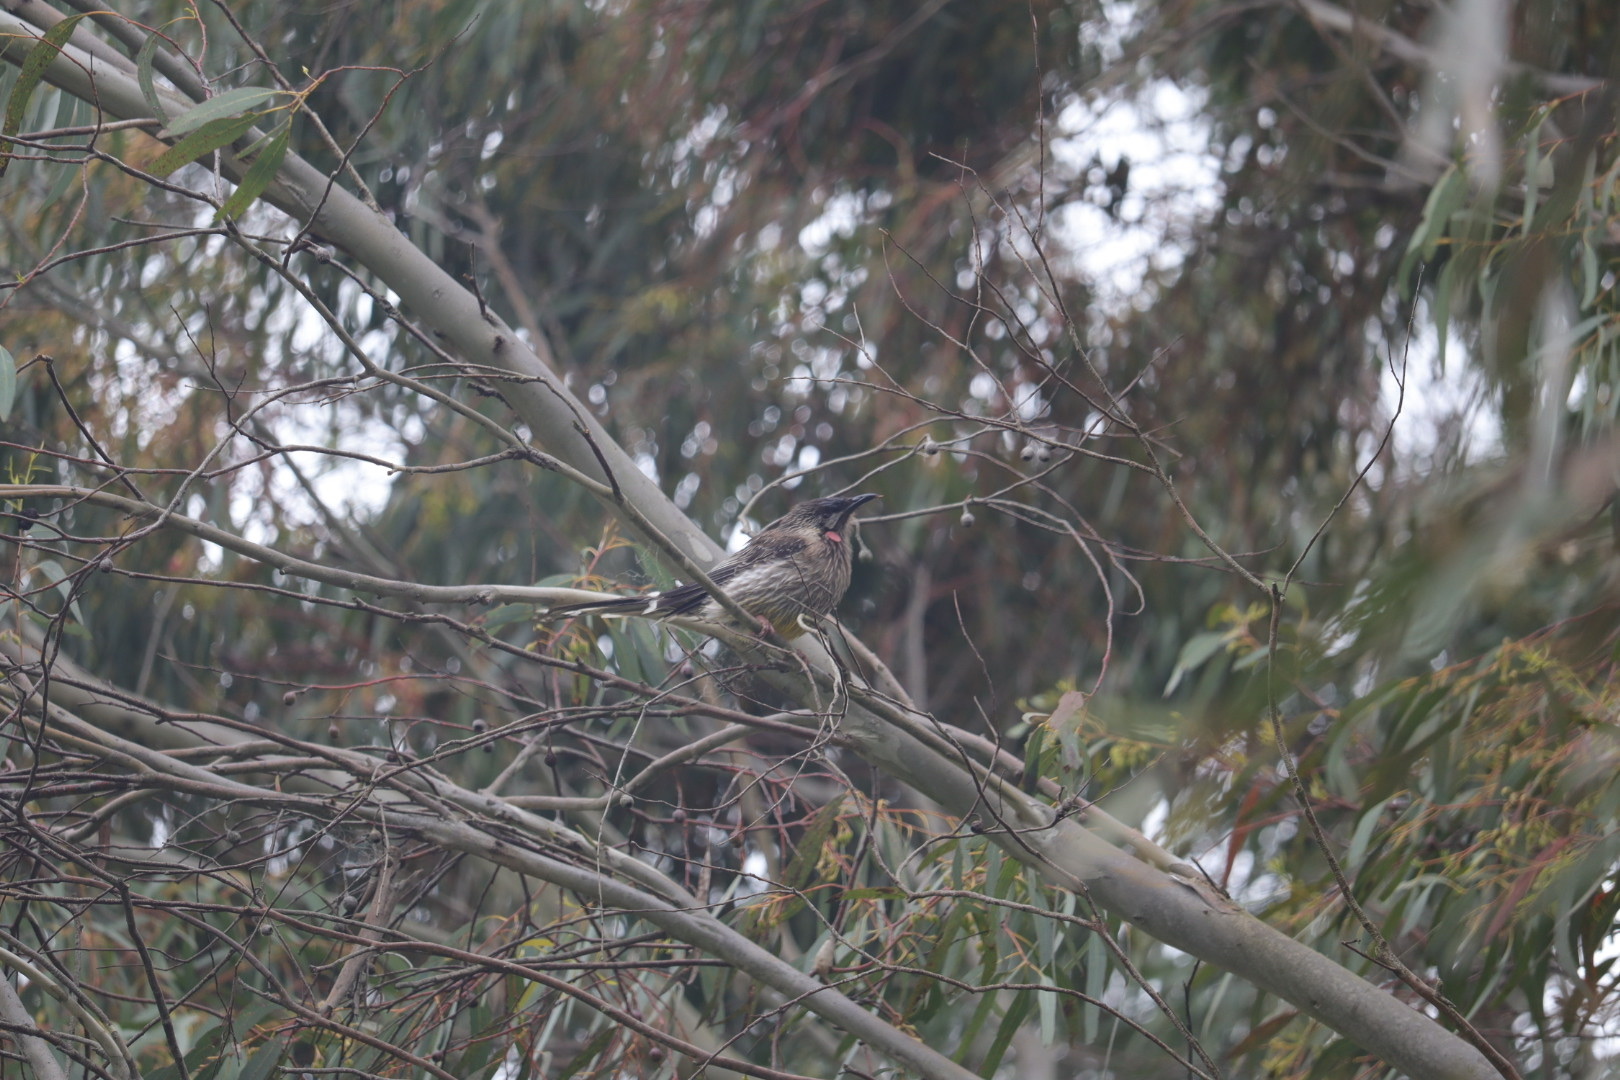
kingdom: Animalia
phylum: Chordata
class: Aves
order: Passeriformes
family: Meliphagidae
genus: Anthochaera
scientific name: Anthochaera carunculata
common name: Red wattlebird
